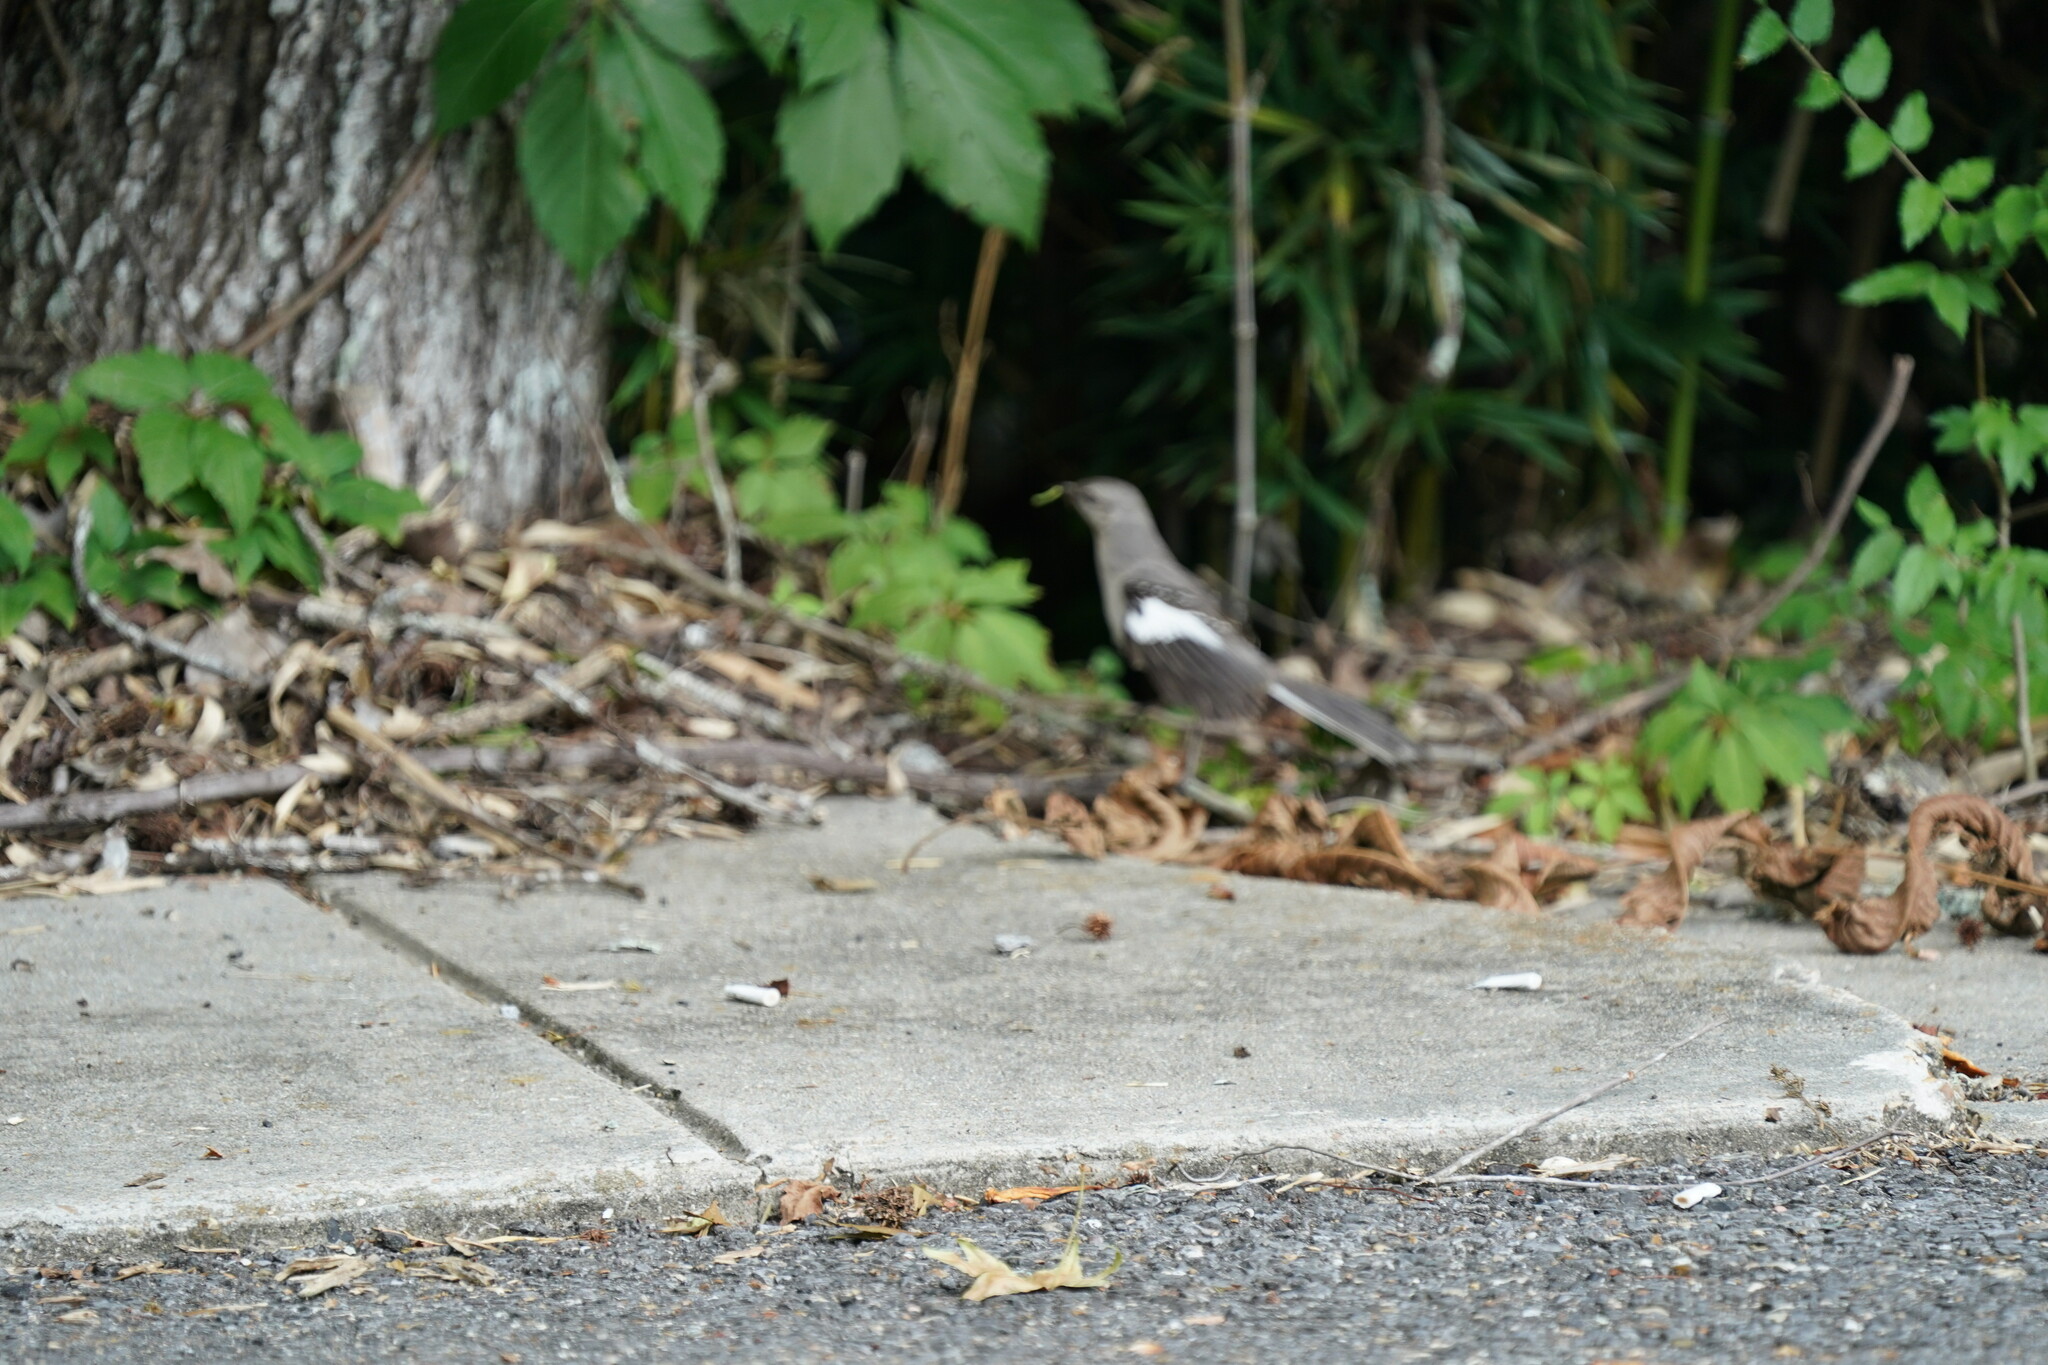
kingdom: Animalia
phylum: Chordata
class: Aves
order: Passeriformes
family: Mimidae
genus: Mimus
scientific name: Mimus polyglottos
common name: Northern mockingbird
